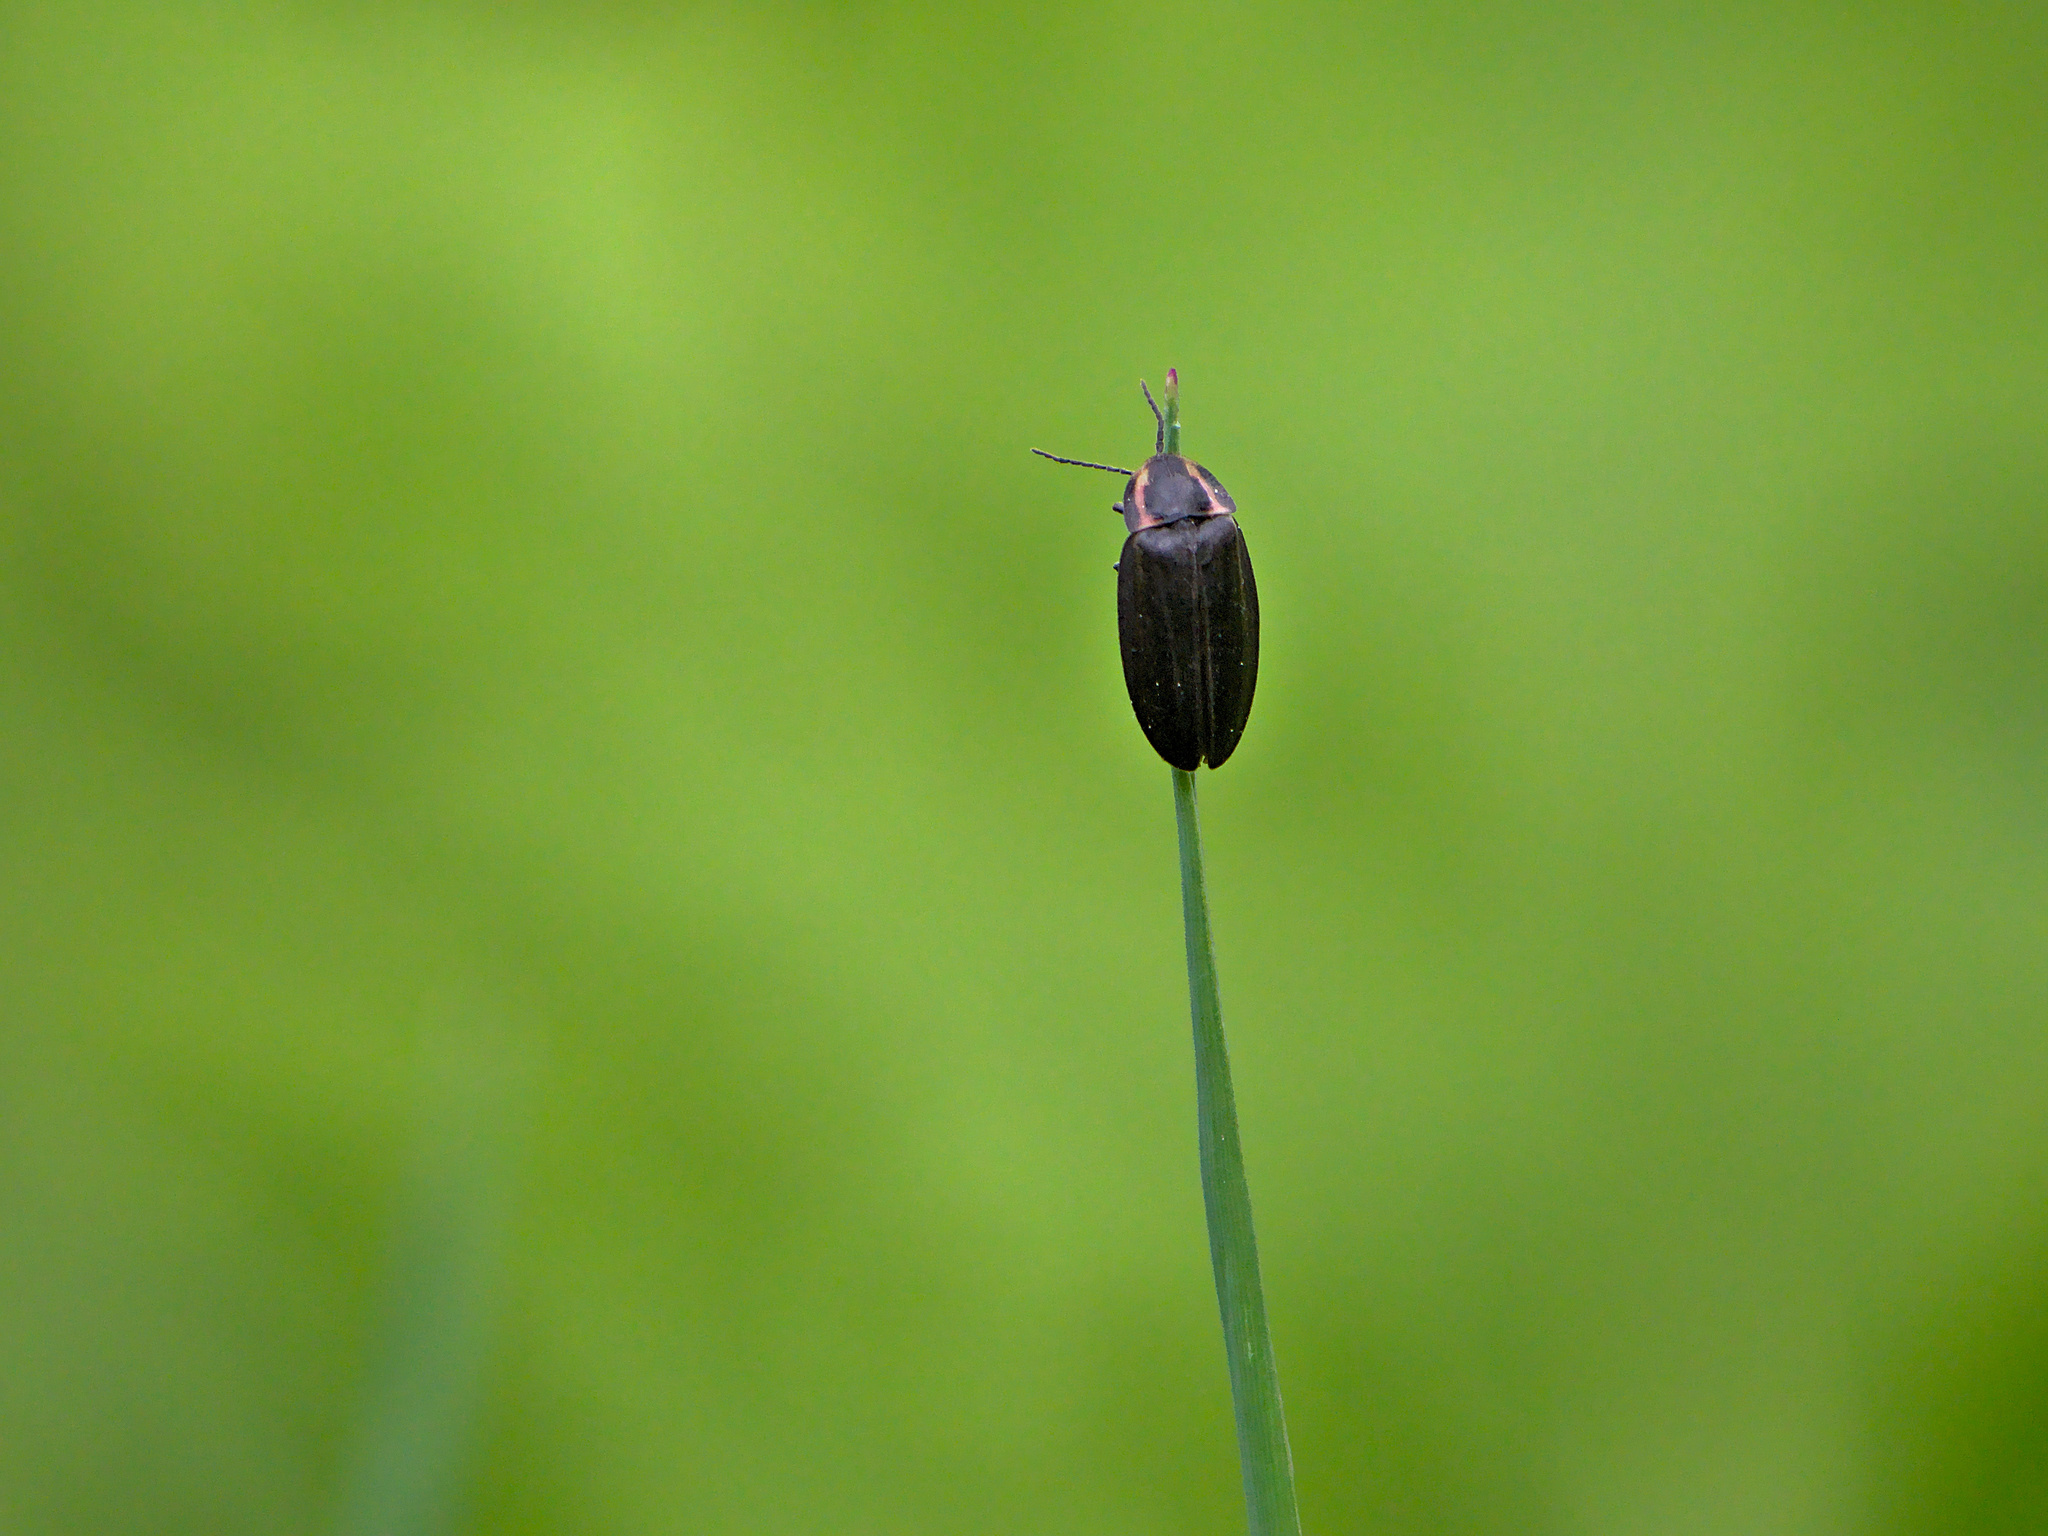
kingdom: Animalia
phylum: Arthropoda
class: Insecta
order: Coleoptera
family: Lampyridae
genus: Photinus
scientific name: Photinus corrusca
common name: Winter firefly
